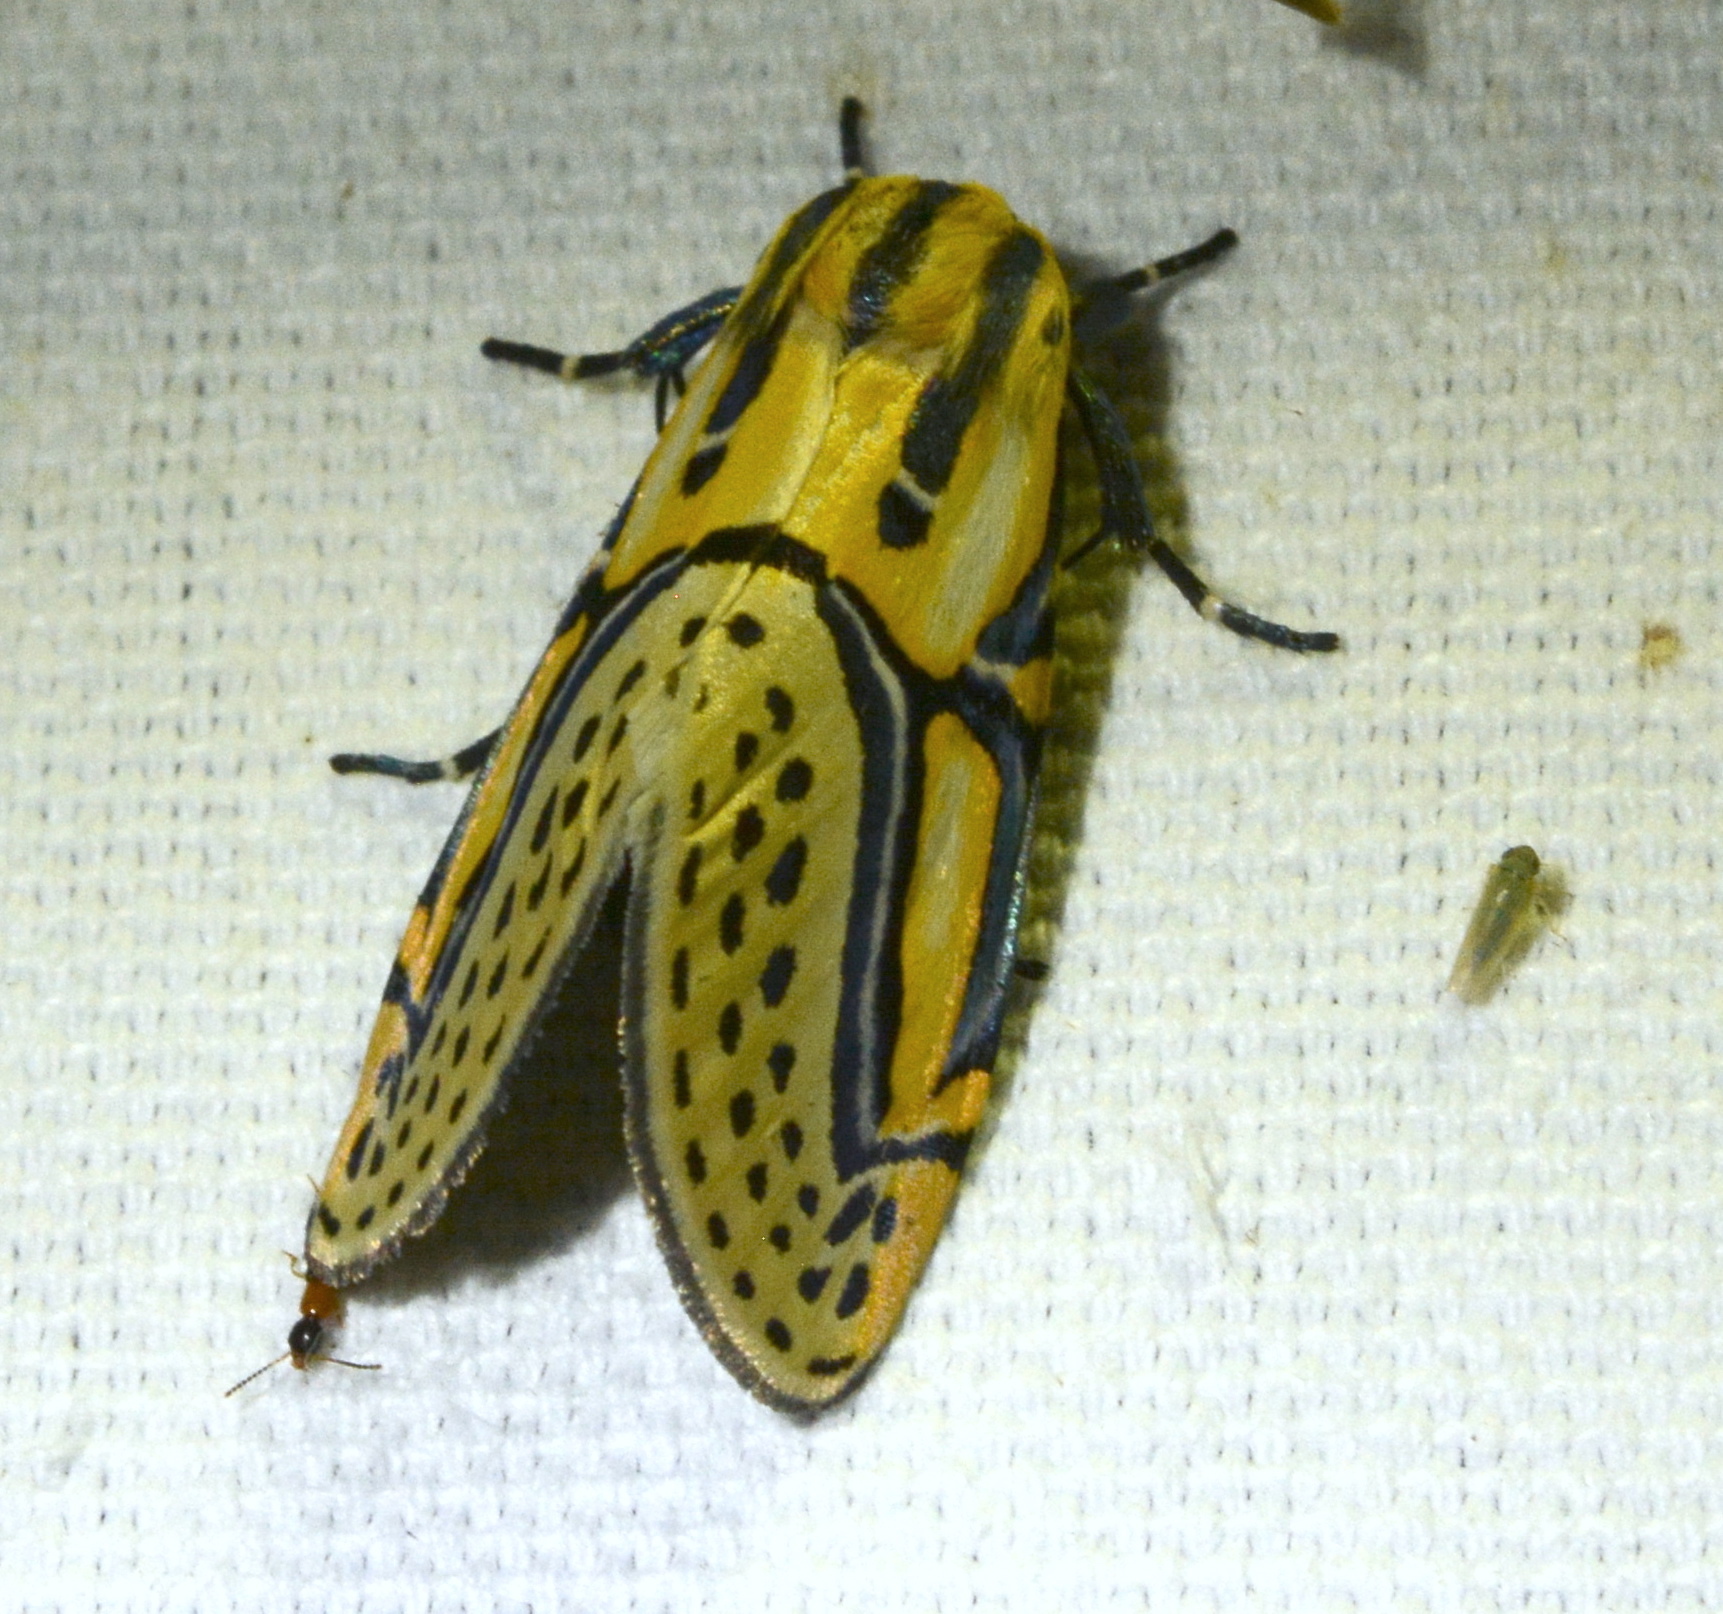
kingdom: Animalia
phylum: Arthropoda
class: Insecta
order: Lepidoptera
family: Erebidae
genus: Diphthera
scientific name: Diphthera festiva
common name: Hieroglyphic moth
